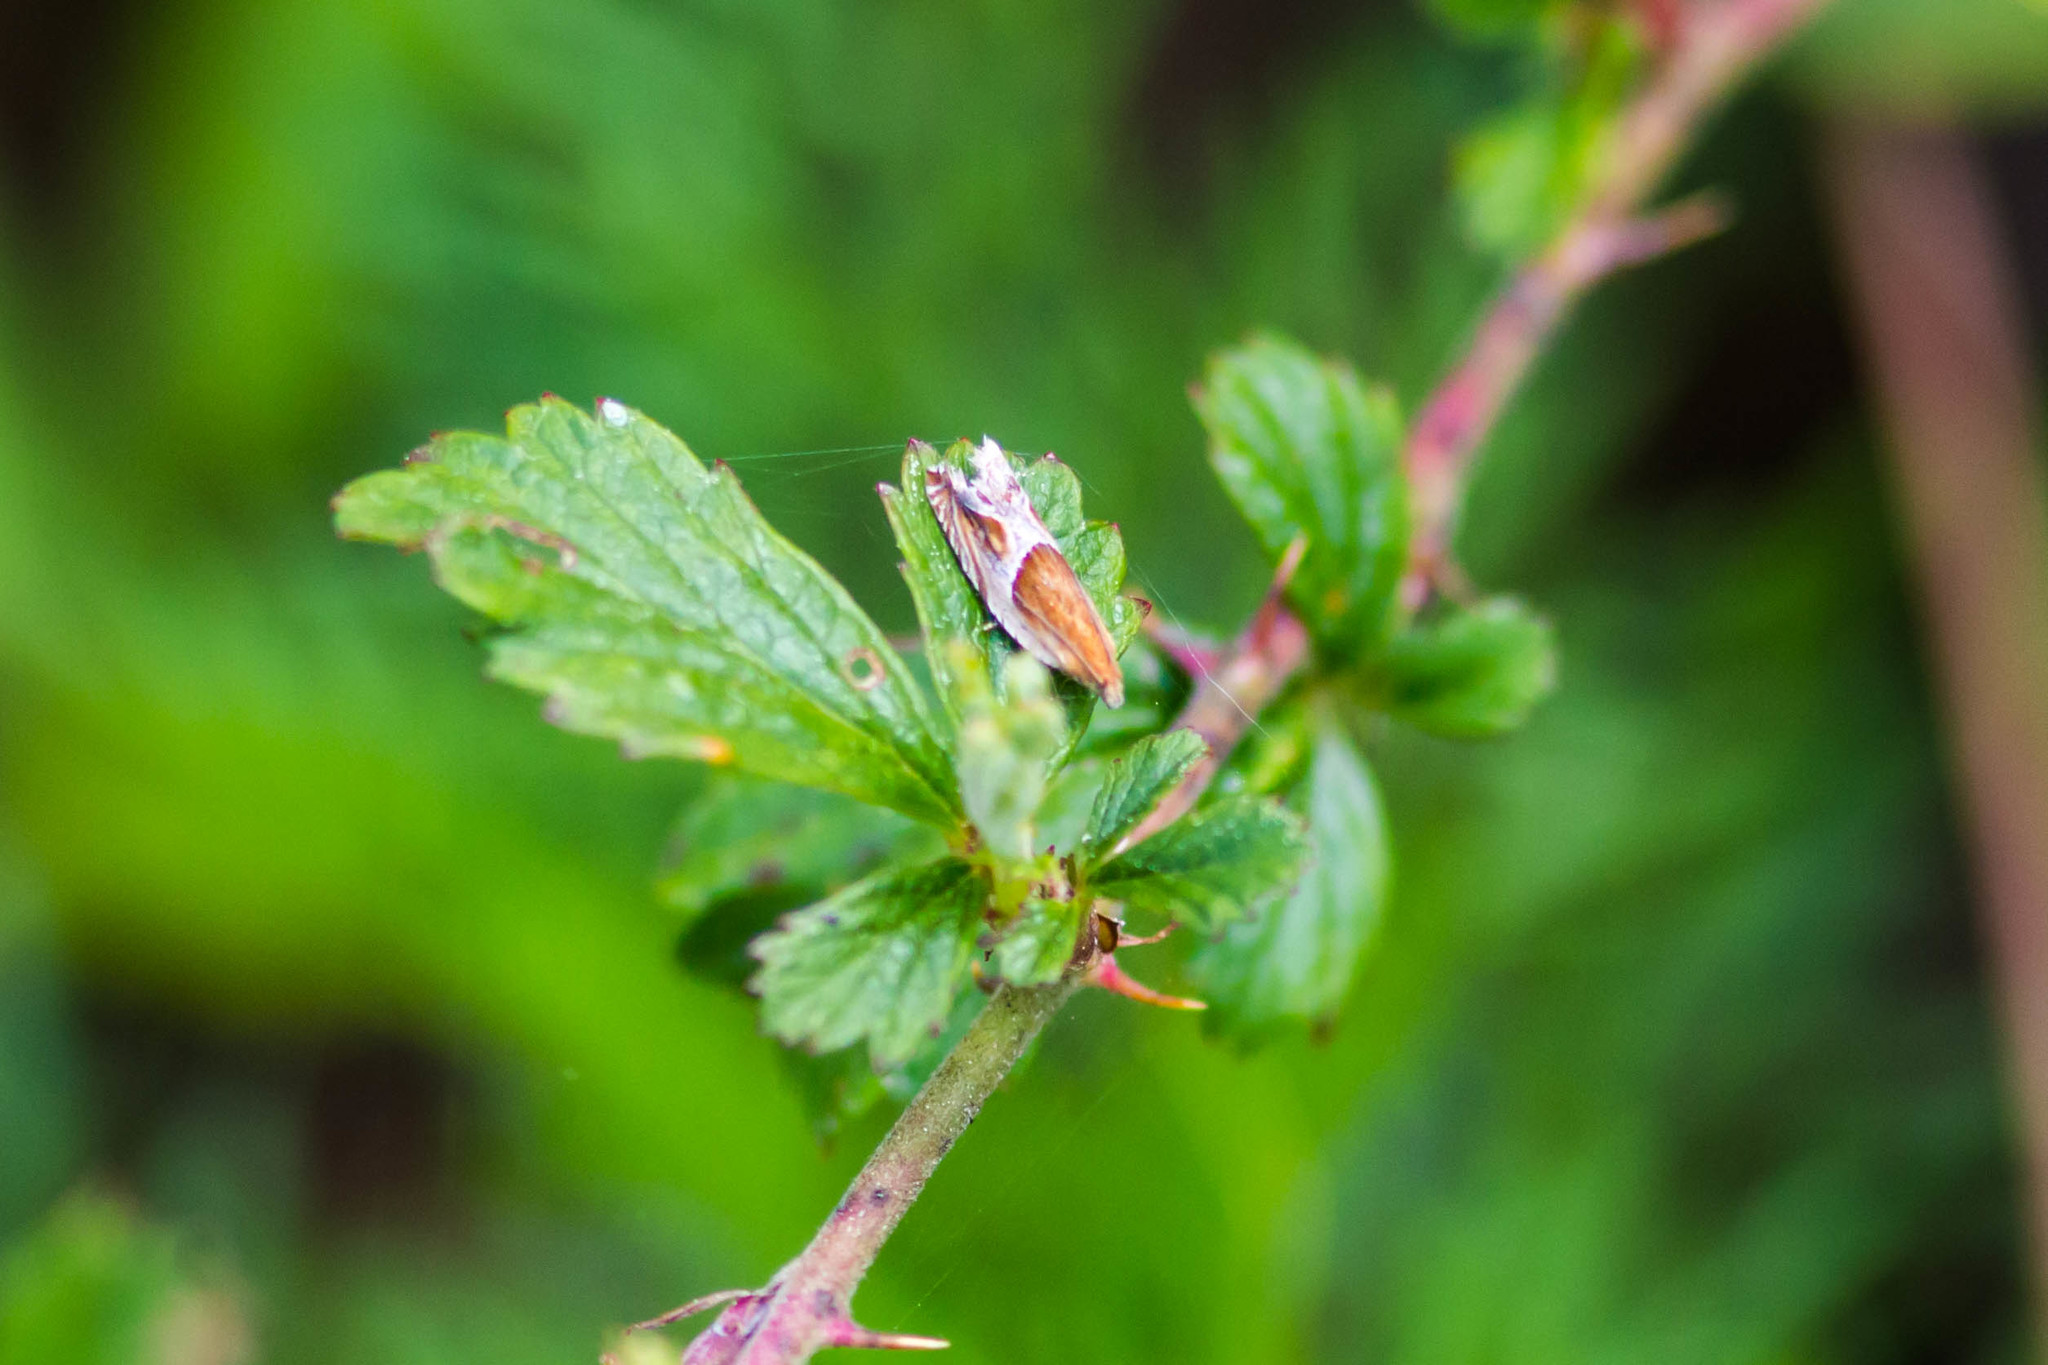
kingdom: Animalia
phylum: Arthropoda
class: Insecta
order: Lepidoptera
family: Tortricidae
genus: Ancylis
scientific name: Ancylis comptana
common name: Little roller
